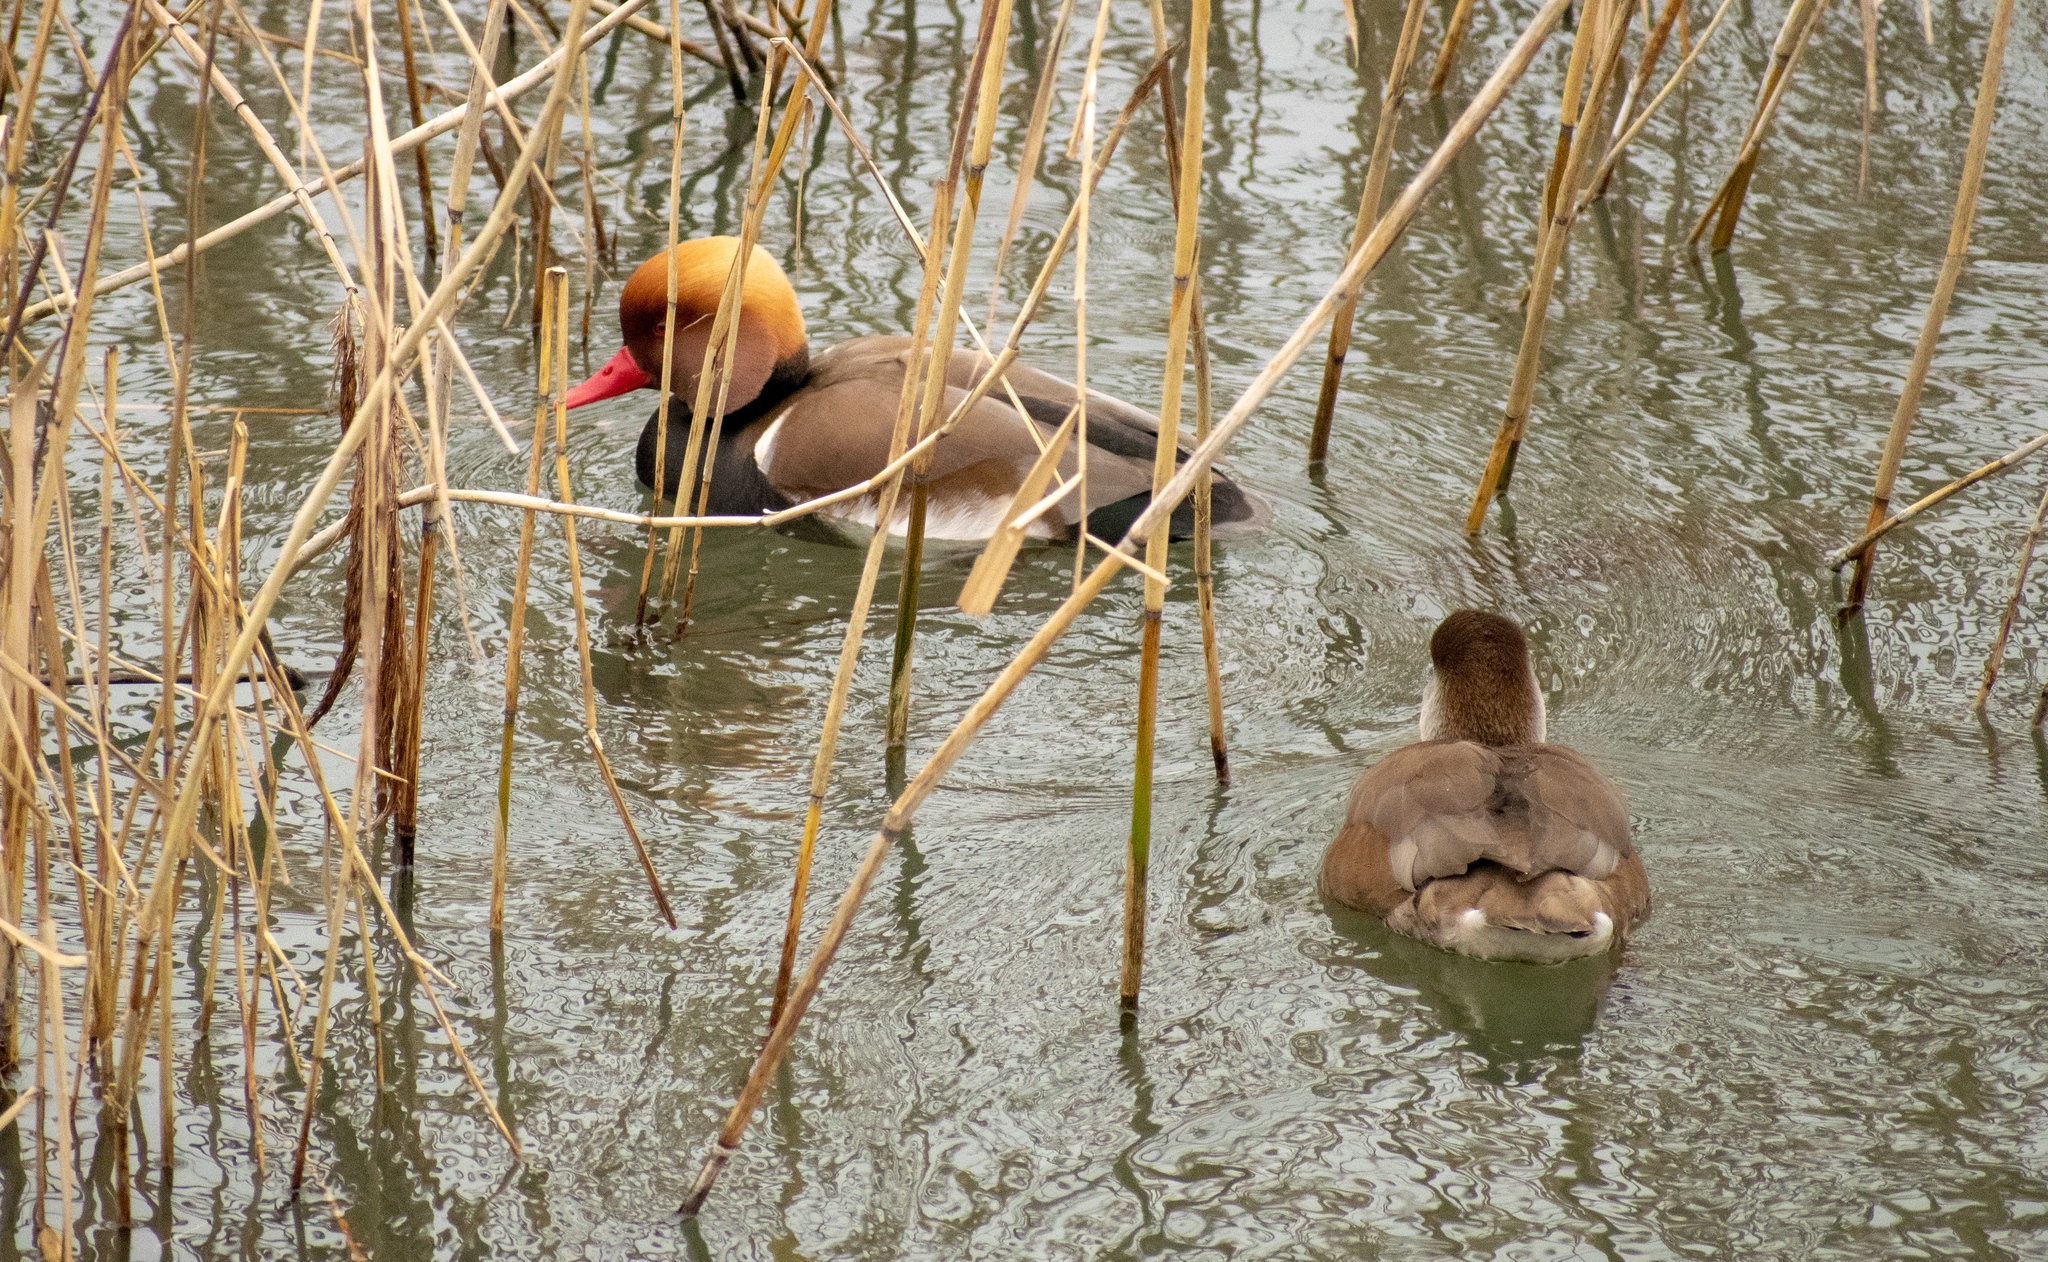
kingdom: Animalia
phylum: Chordata
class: Aves
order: Anseriformes
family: Anatidae
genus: Netta
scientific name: Netta rufina
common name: Red-crested pochard
